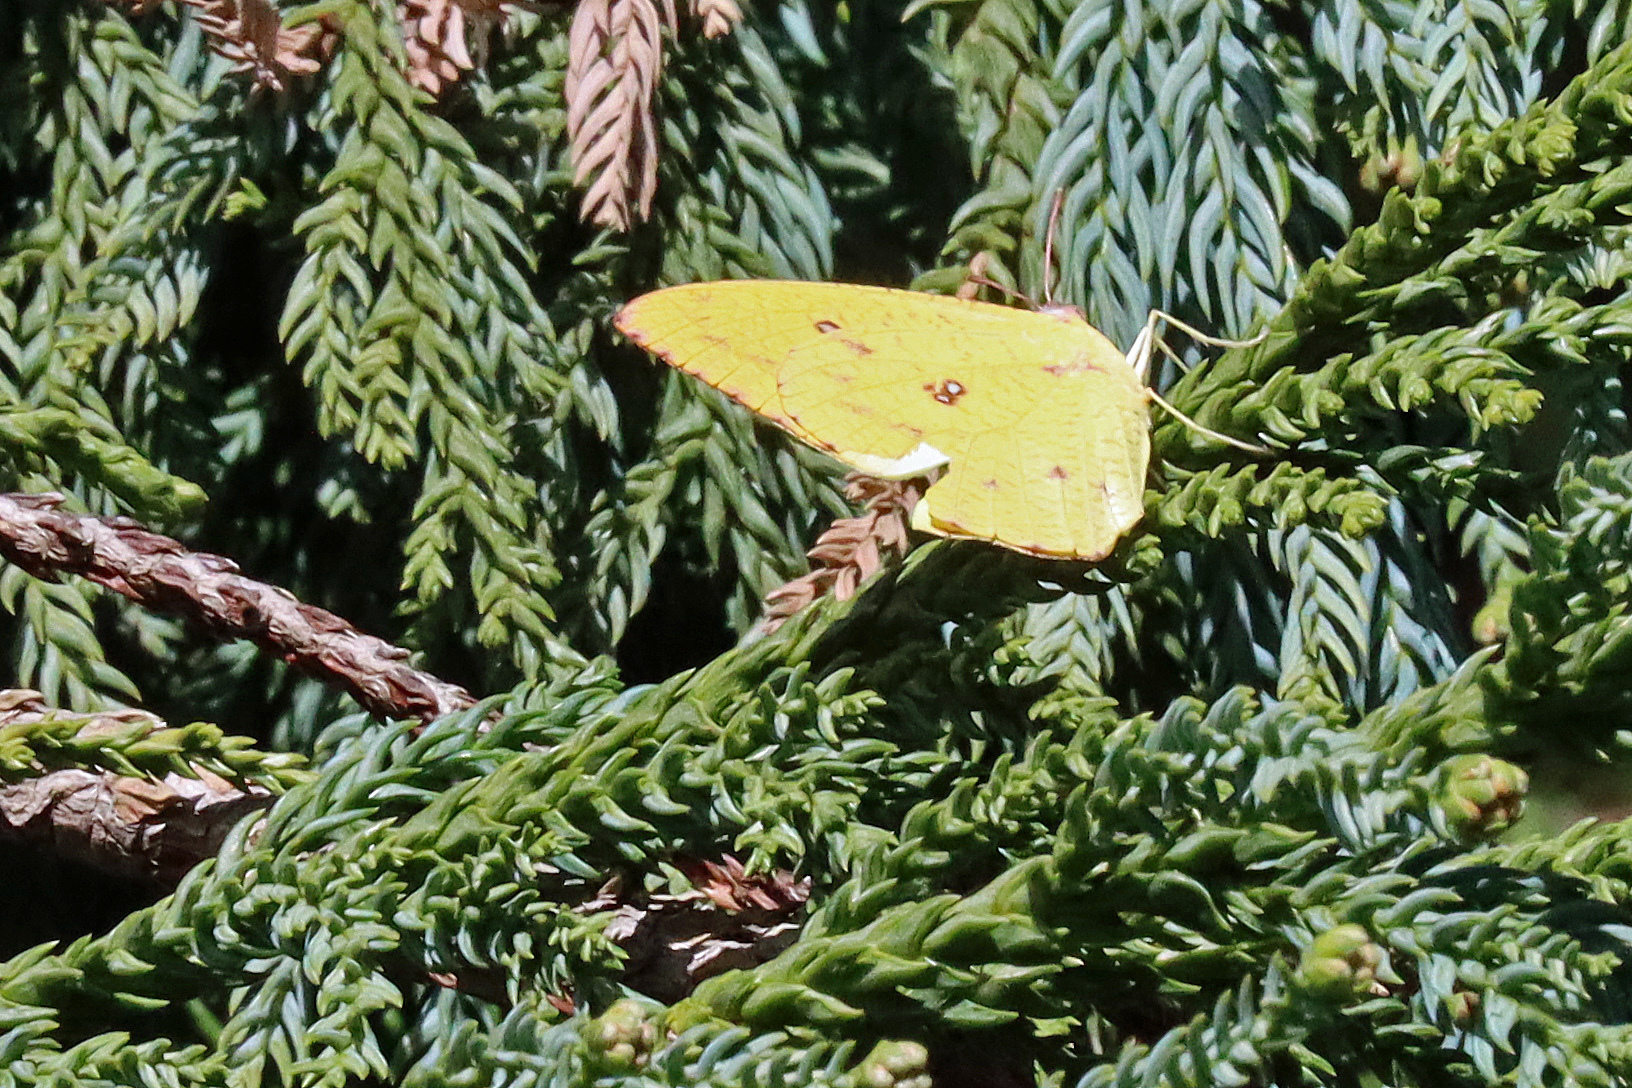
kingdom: Animalia
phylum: Arthropoda
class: Insecta
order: Lepidoptera
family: Pieridae
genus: Catopsilia
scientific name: Catopsilia florella
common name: African migrant
